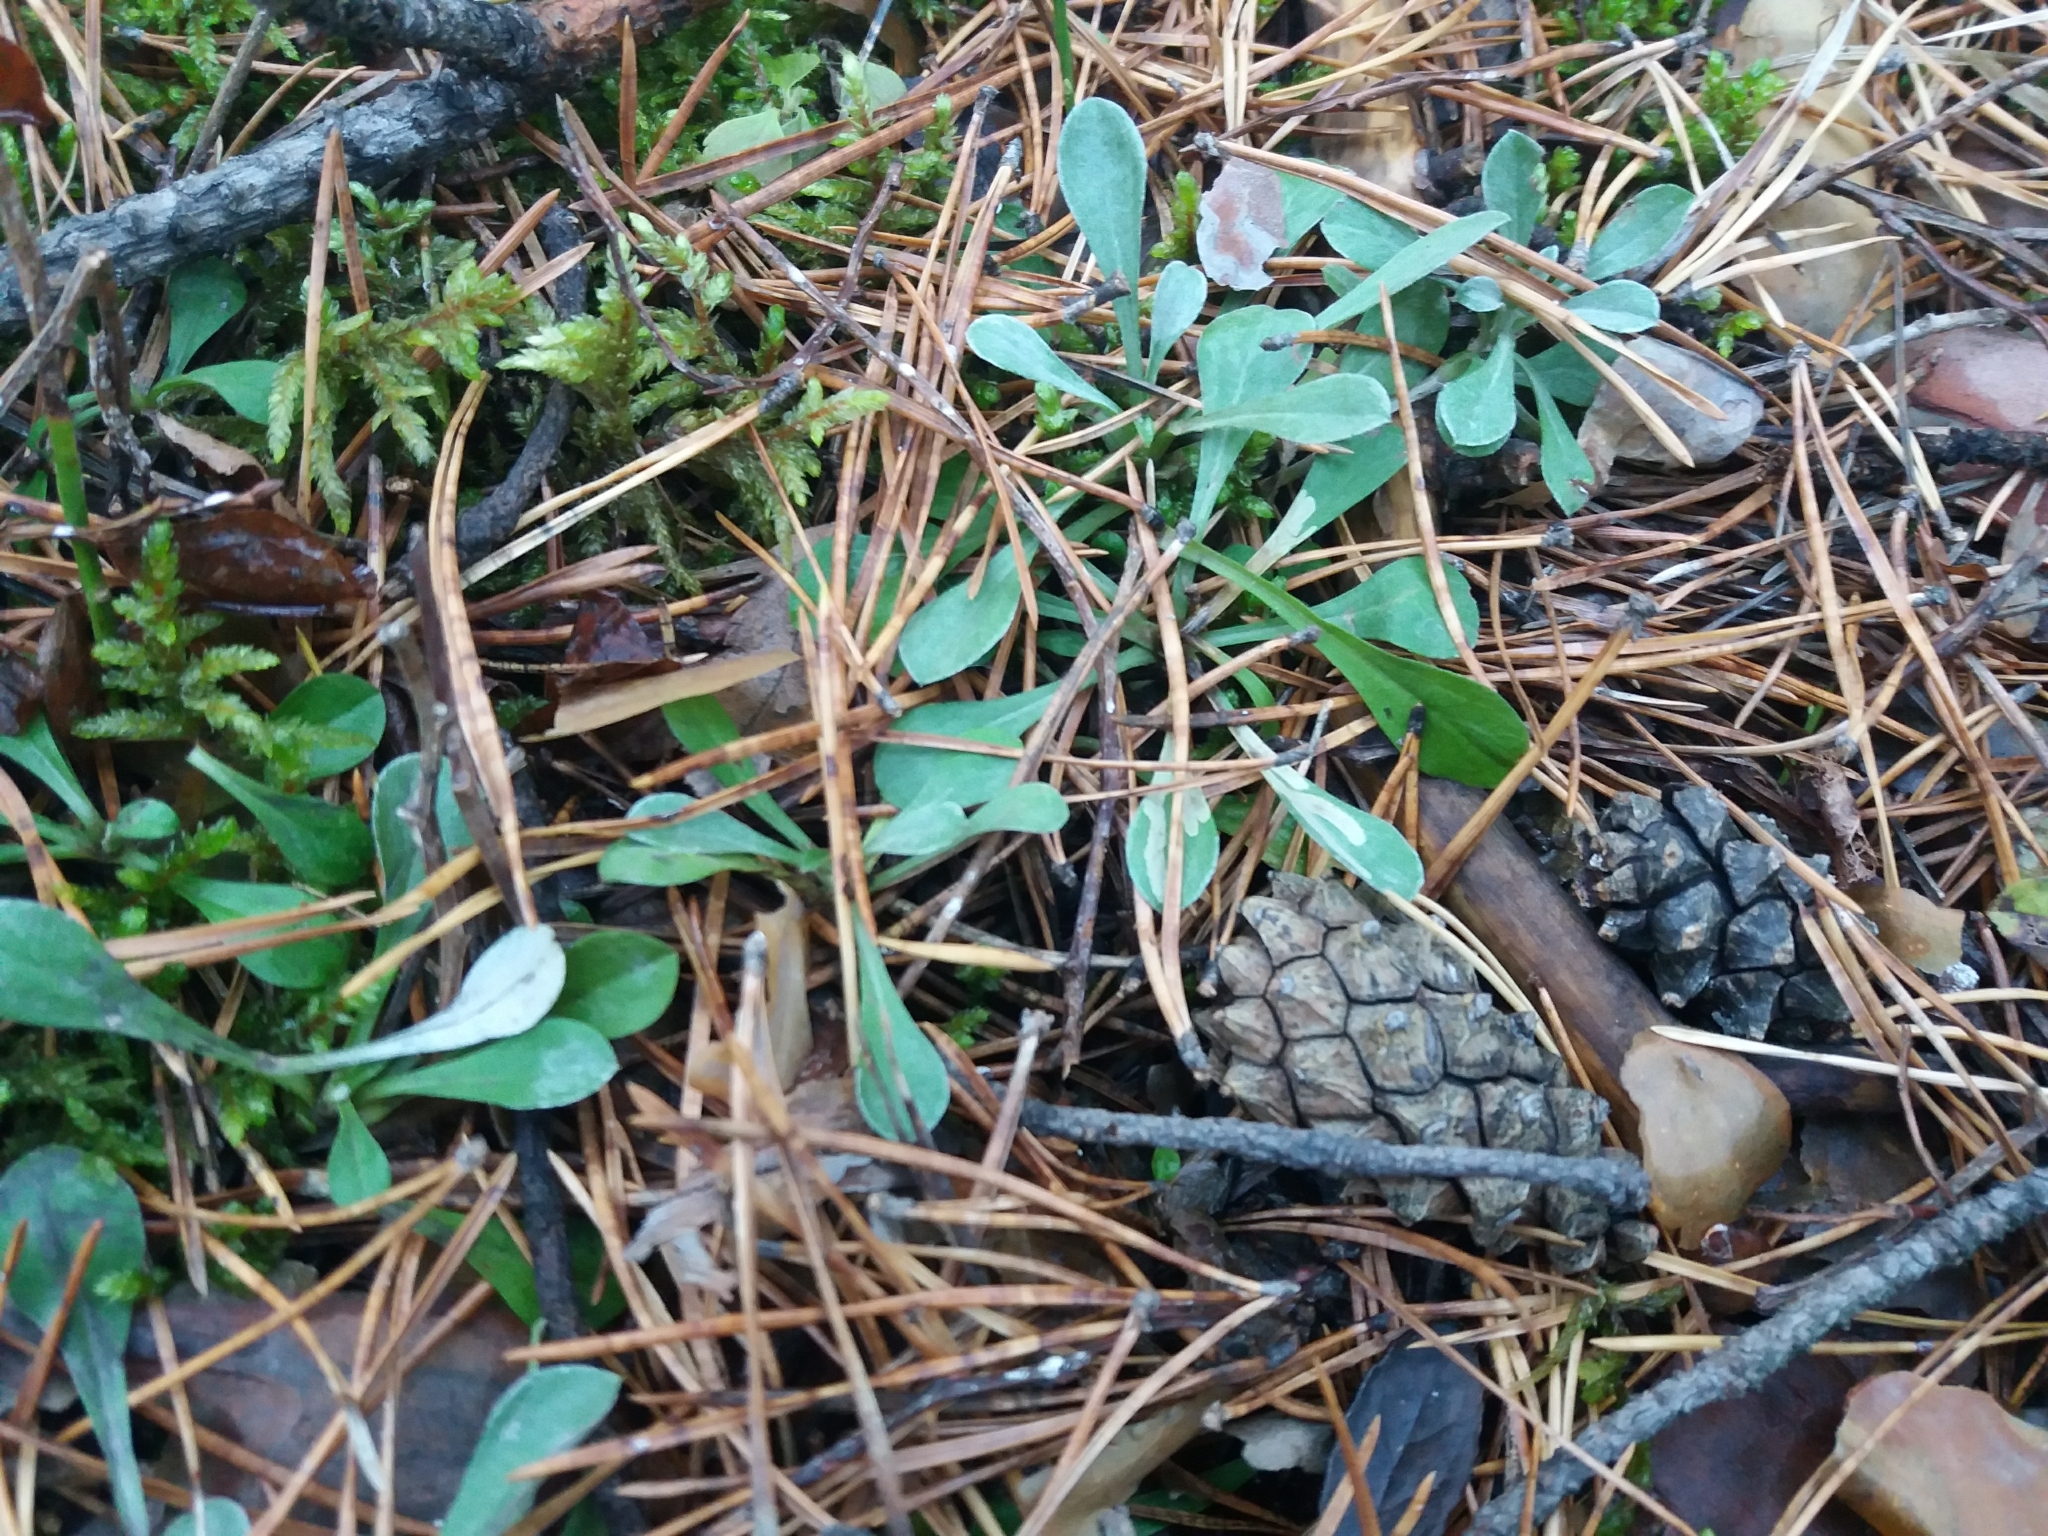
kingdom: Plantae
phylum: Tracheophyta
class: Magnoliopsida
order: Asterales
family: Asteraceae
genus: Antennaria
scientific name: Antennaria dioica
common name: Mountain everlasting
